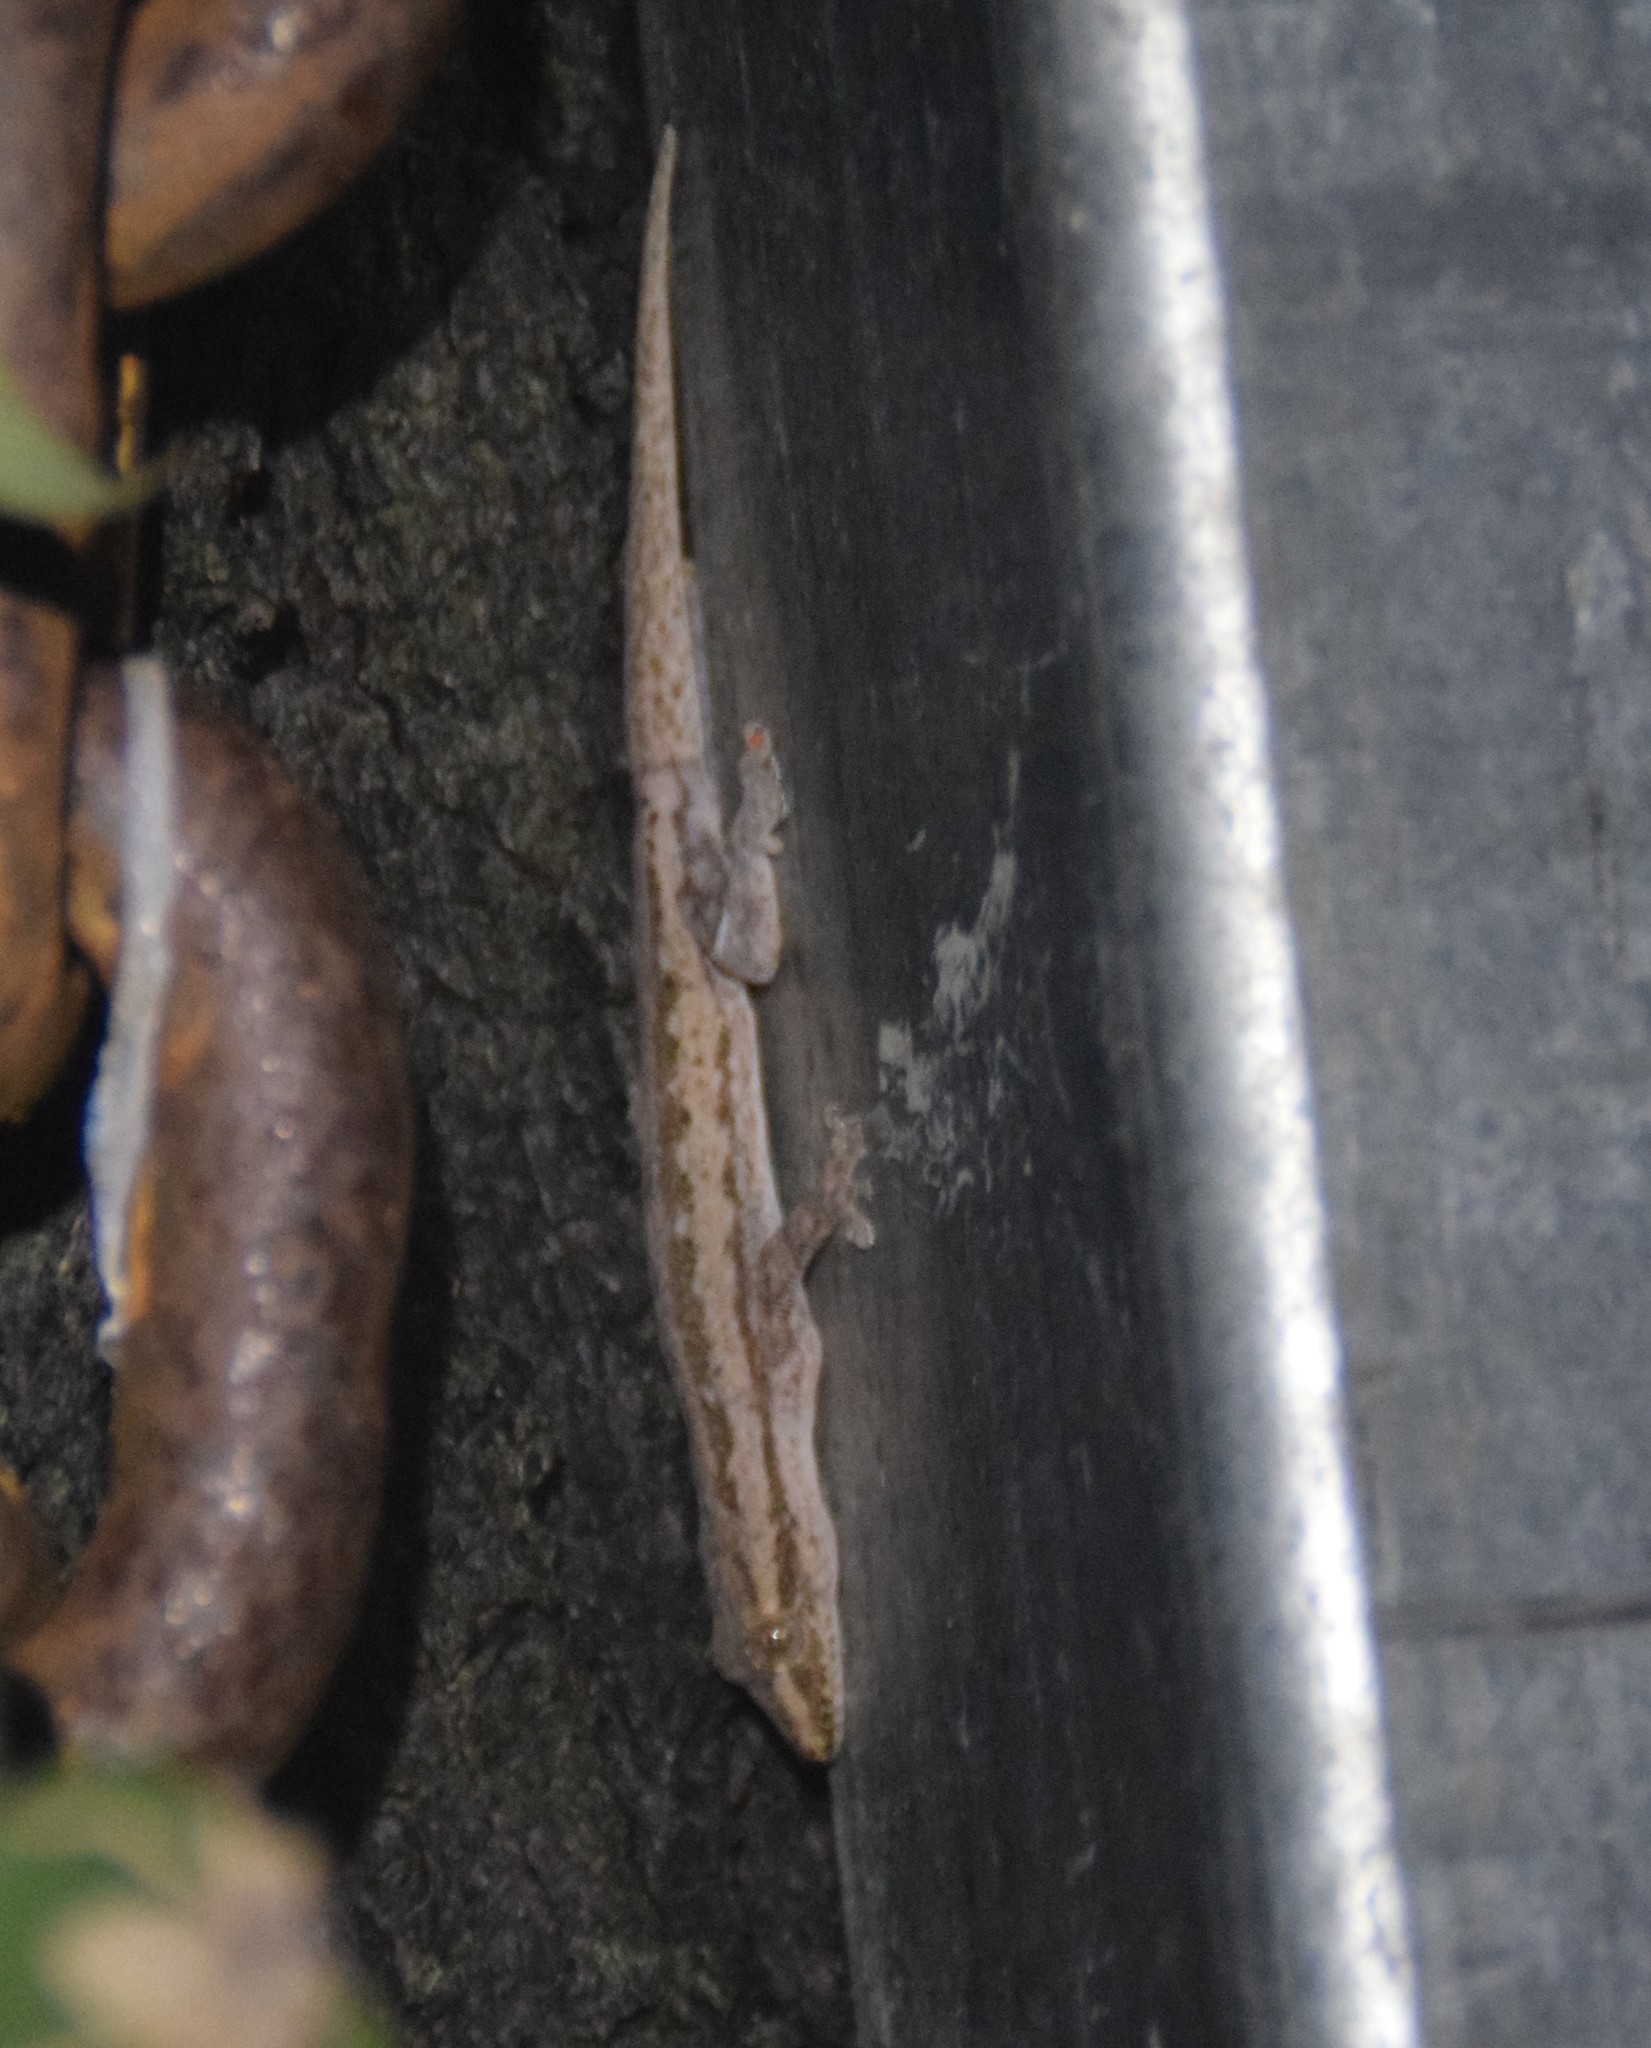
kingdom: Animalia
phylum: Chordata
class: Squamata
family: Gekkonidae
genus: Hemidactylus
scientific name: Hemidactylus frenatus
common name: Common house gecko
